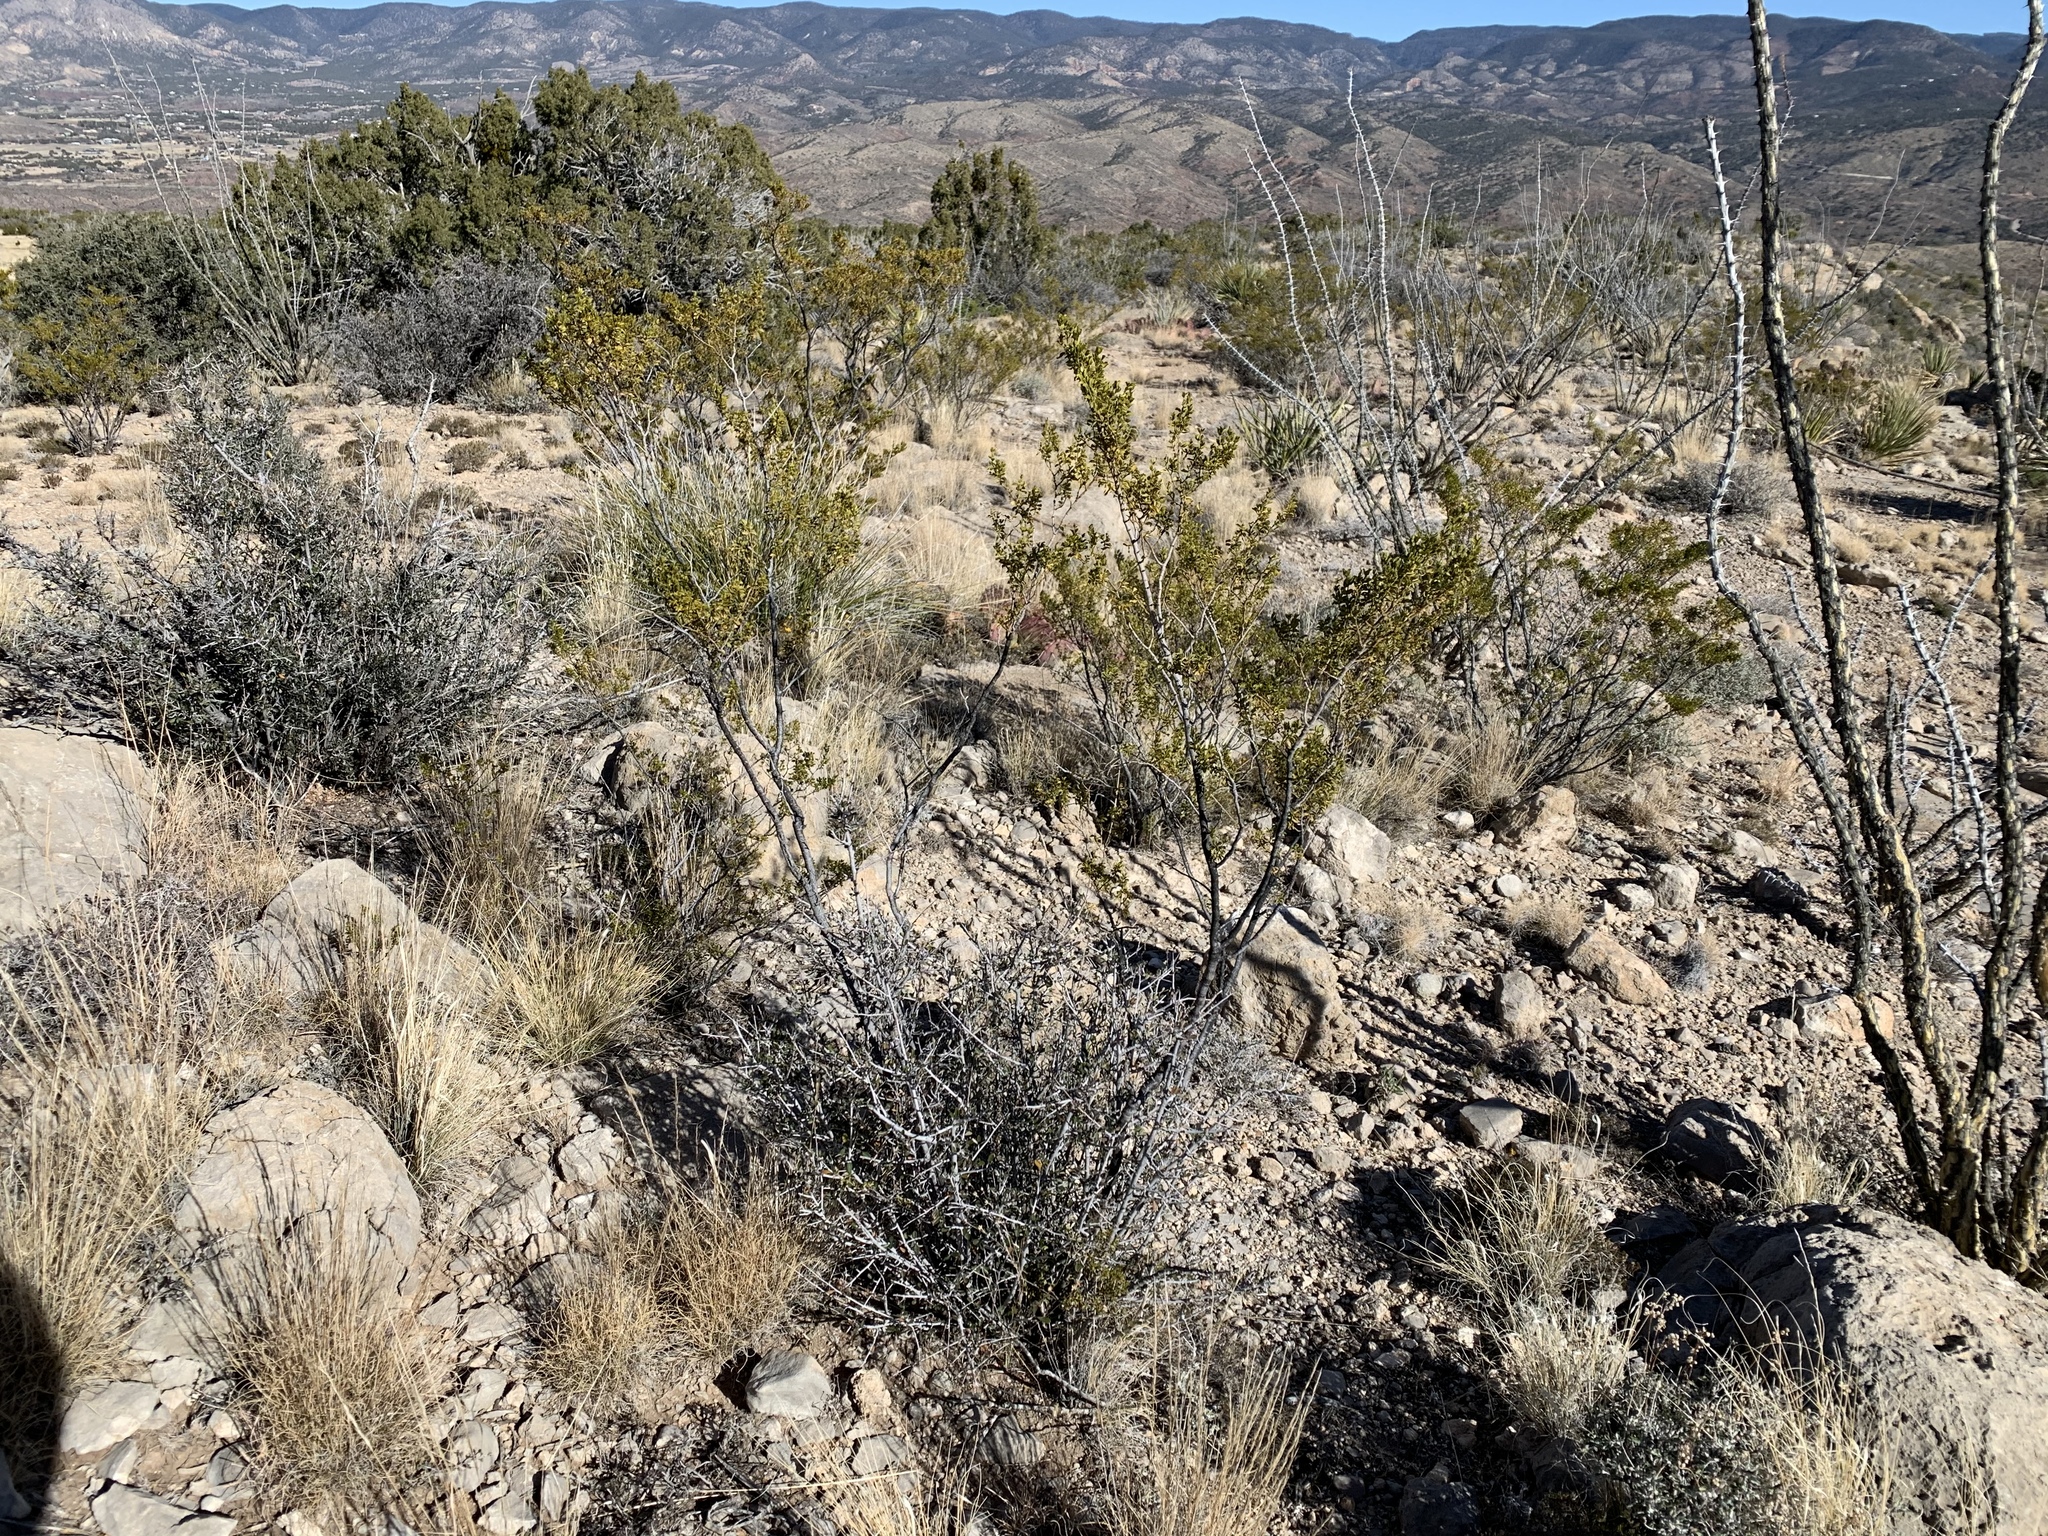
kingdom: Plantae
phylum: Tracheophyta
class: Magnoliopsida
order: Zygophyllales
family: Zygophyllaceae
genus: Larrea
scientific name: Larrea tridentata
